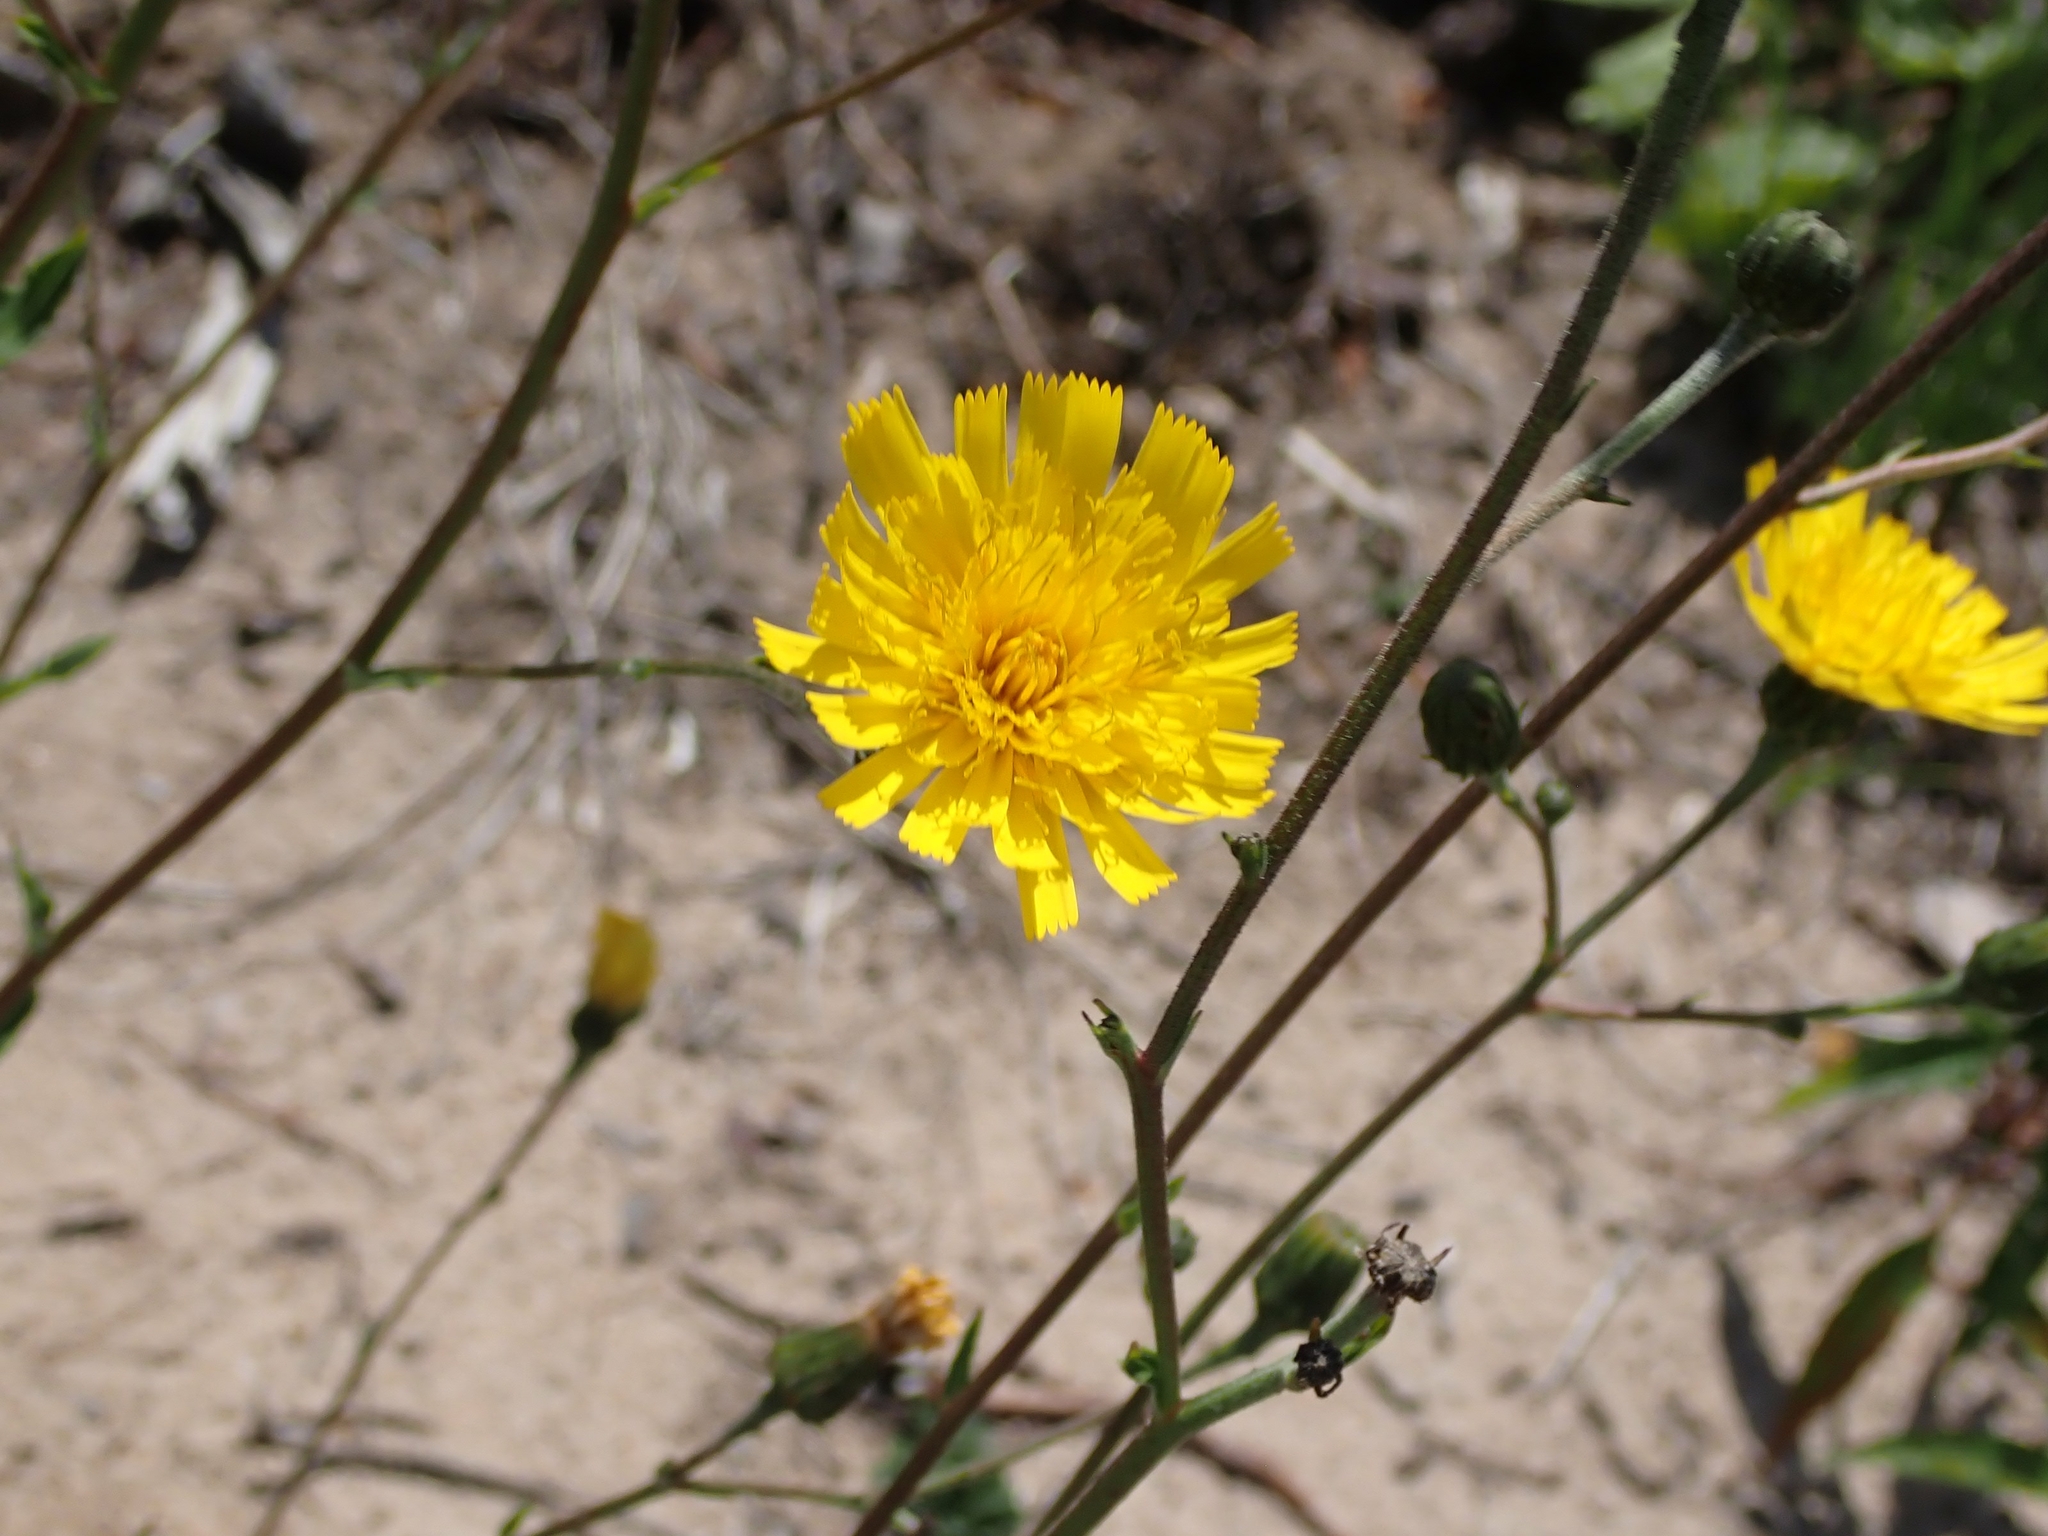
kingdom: Plantae
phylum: Tracheophyta
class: Magnoliopsida
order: Asterales
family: Asteraceae
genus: Hieracium
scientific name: Hieracium umbellatum
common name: Northern hawkweed
